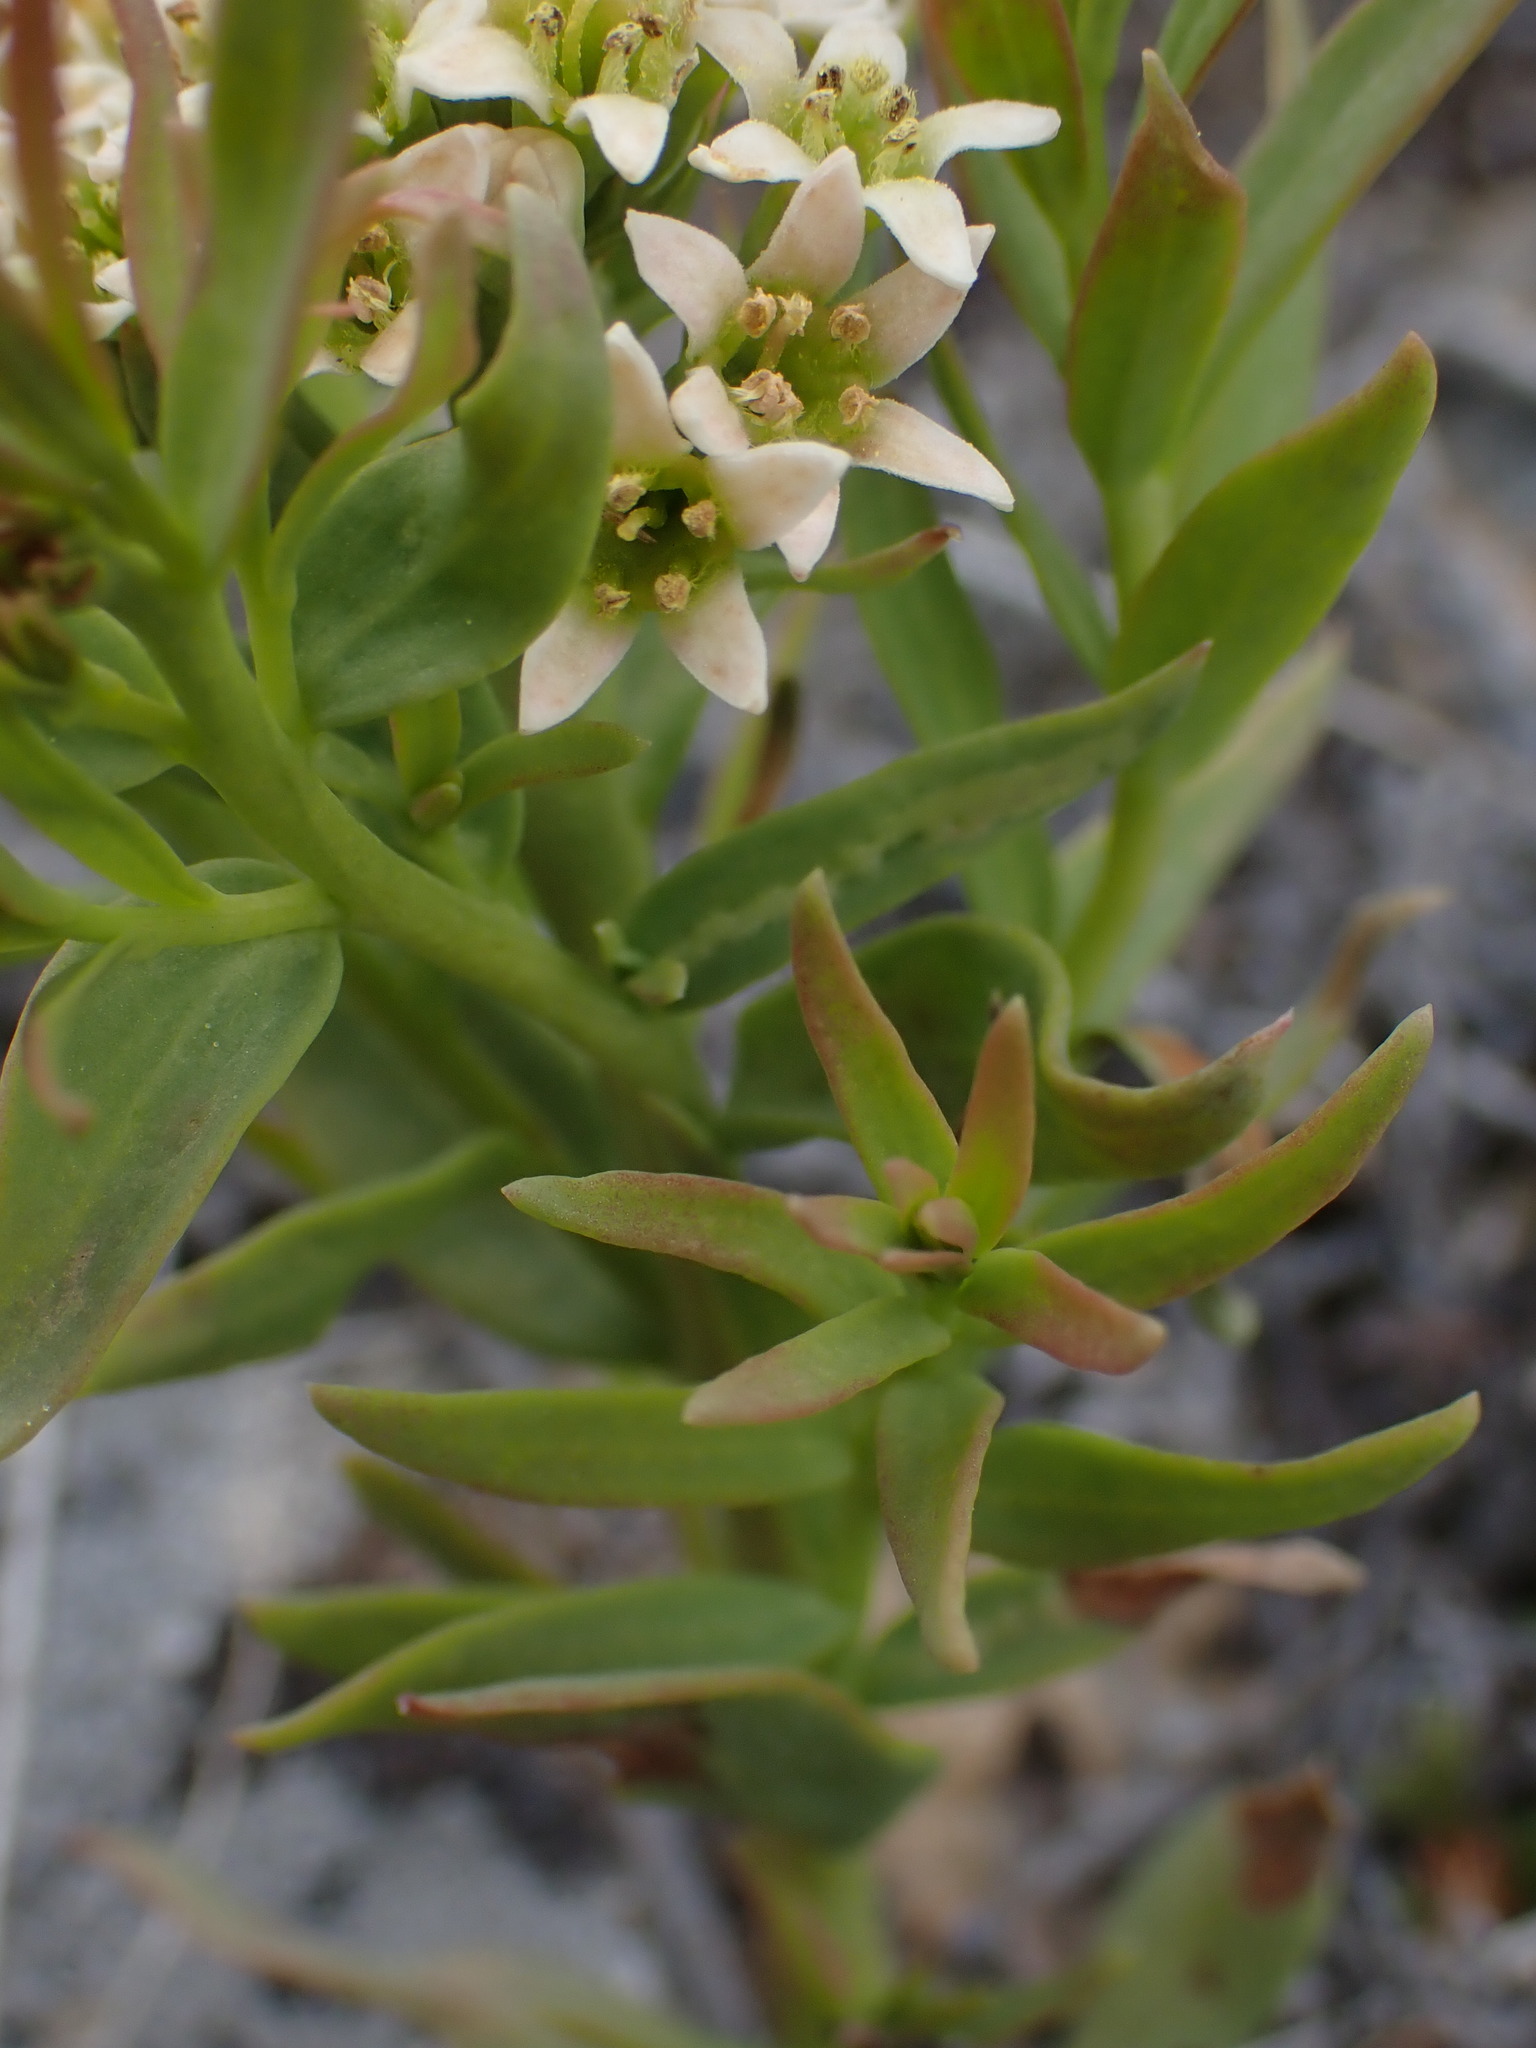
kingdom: Plantae
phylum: Tracheophyta
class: Magnoliopsida
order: Santalales
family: Comandraceae
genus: Comandra
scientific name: Comandra umbellata
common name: Bastard toadflax
